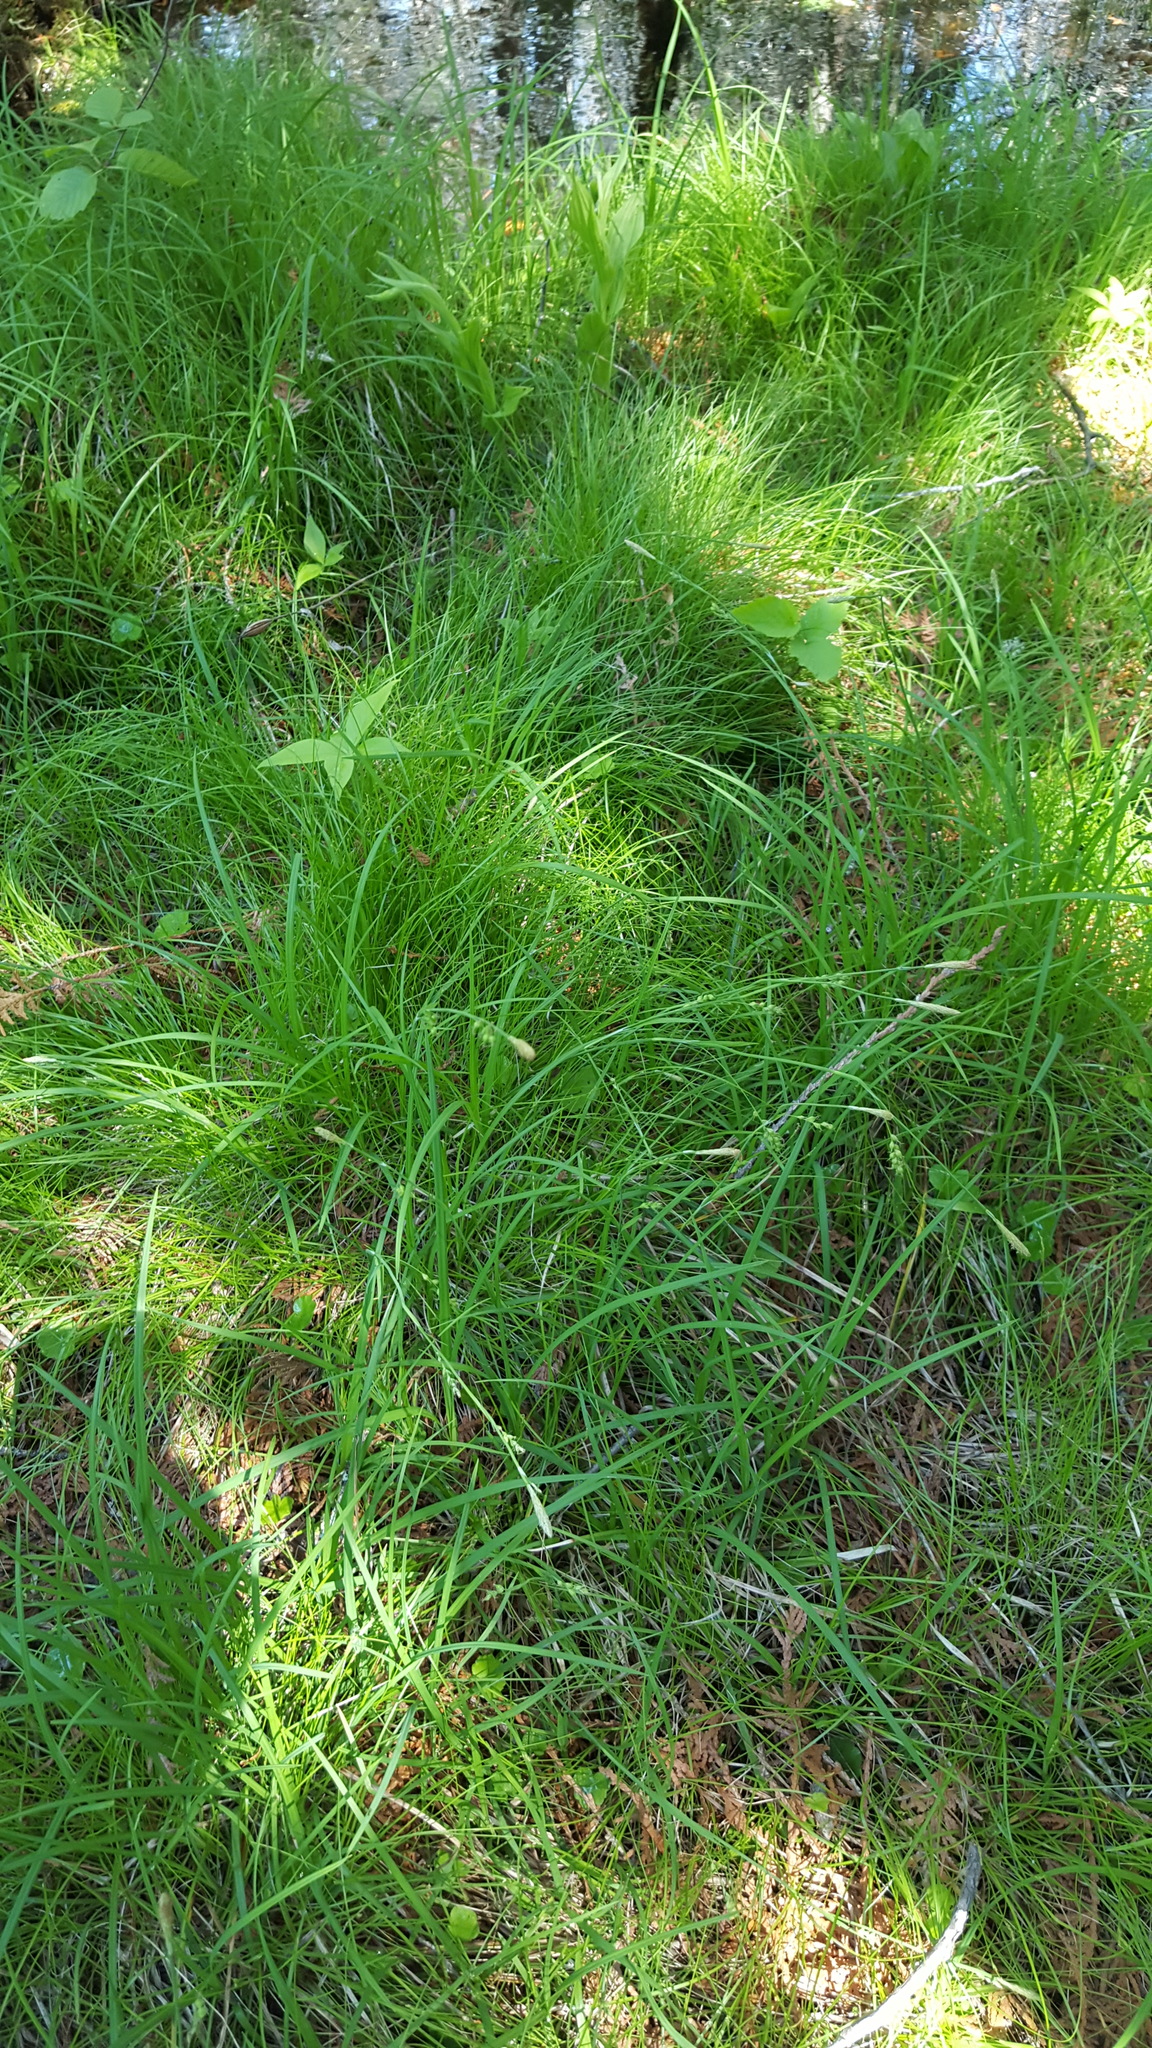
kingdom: Plantae
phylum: Tracheophyta
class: Liliopsida
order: Poales
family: Cyperaceae
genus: Carex
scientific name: Carex vaginata
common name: Sheathed sedge
